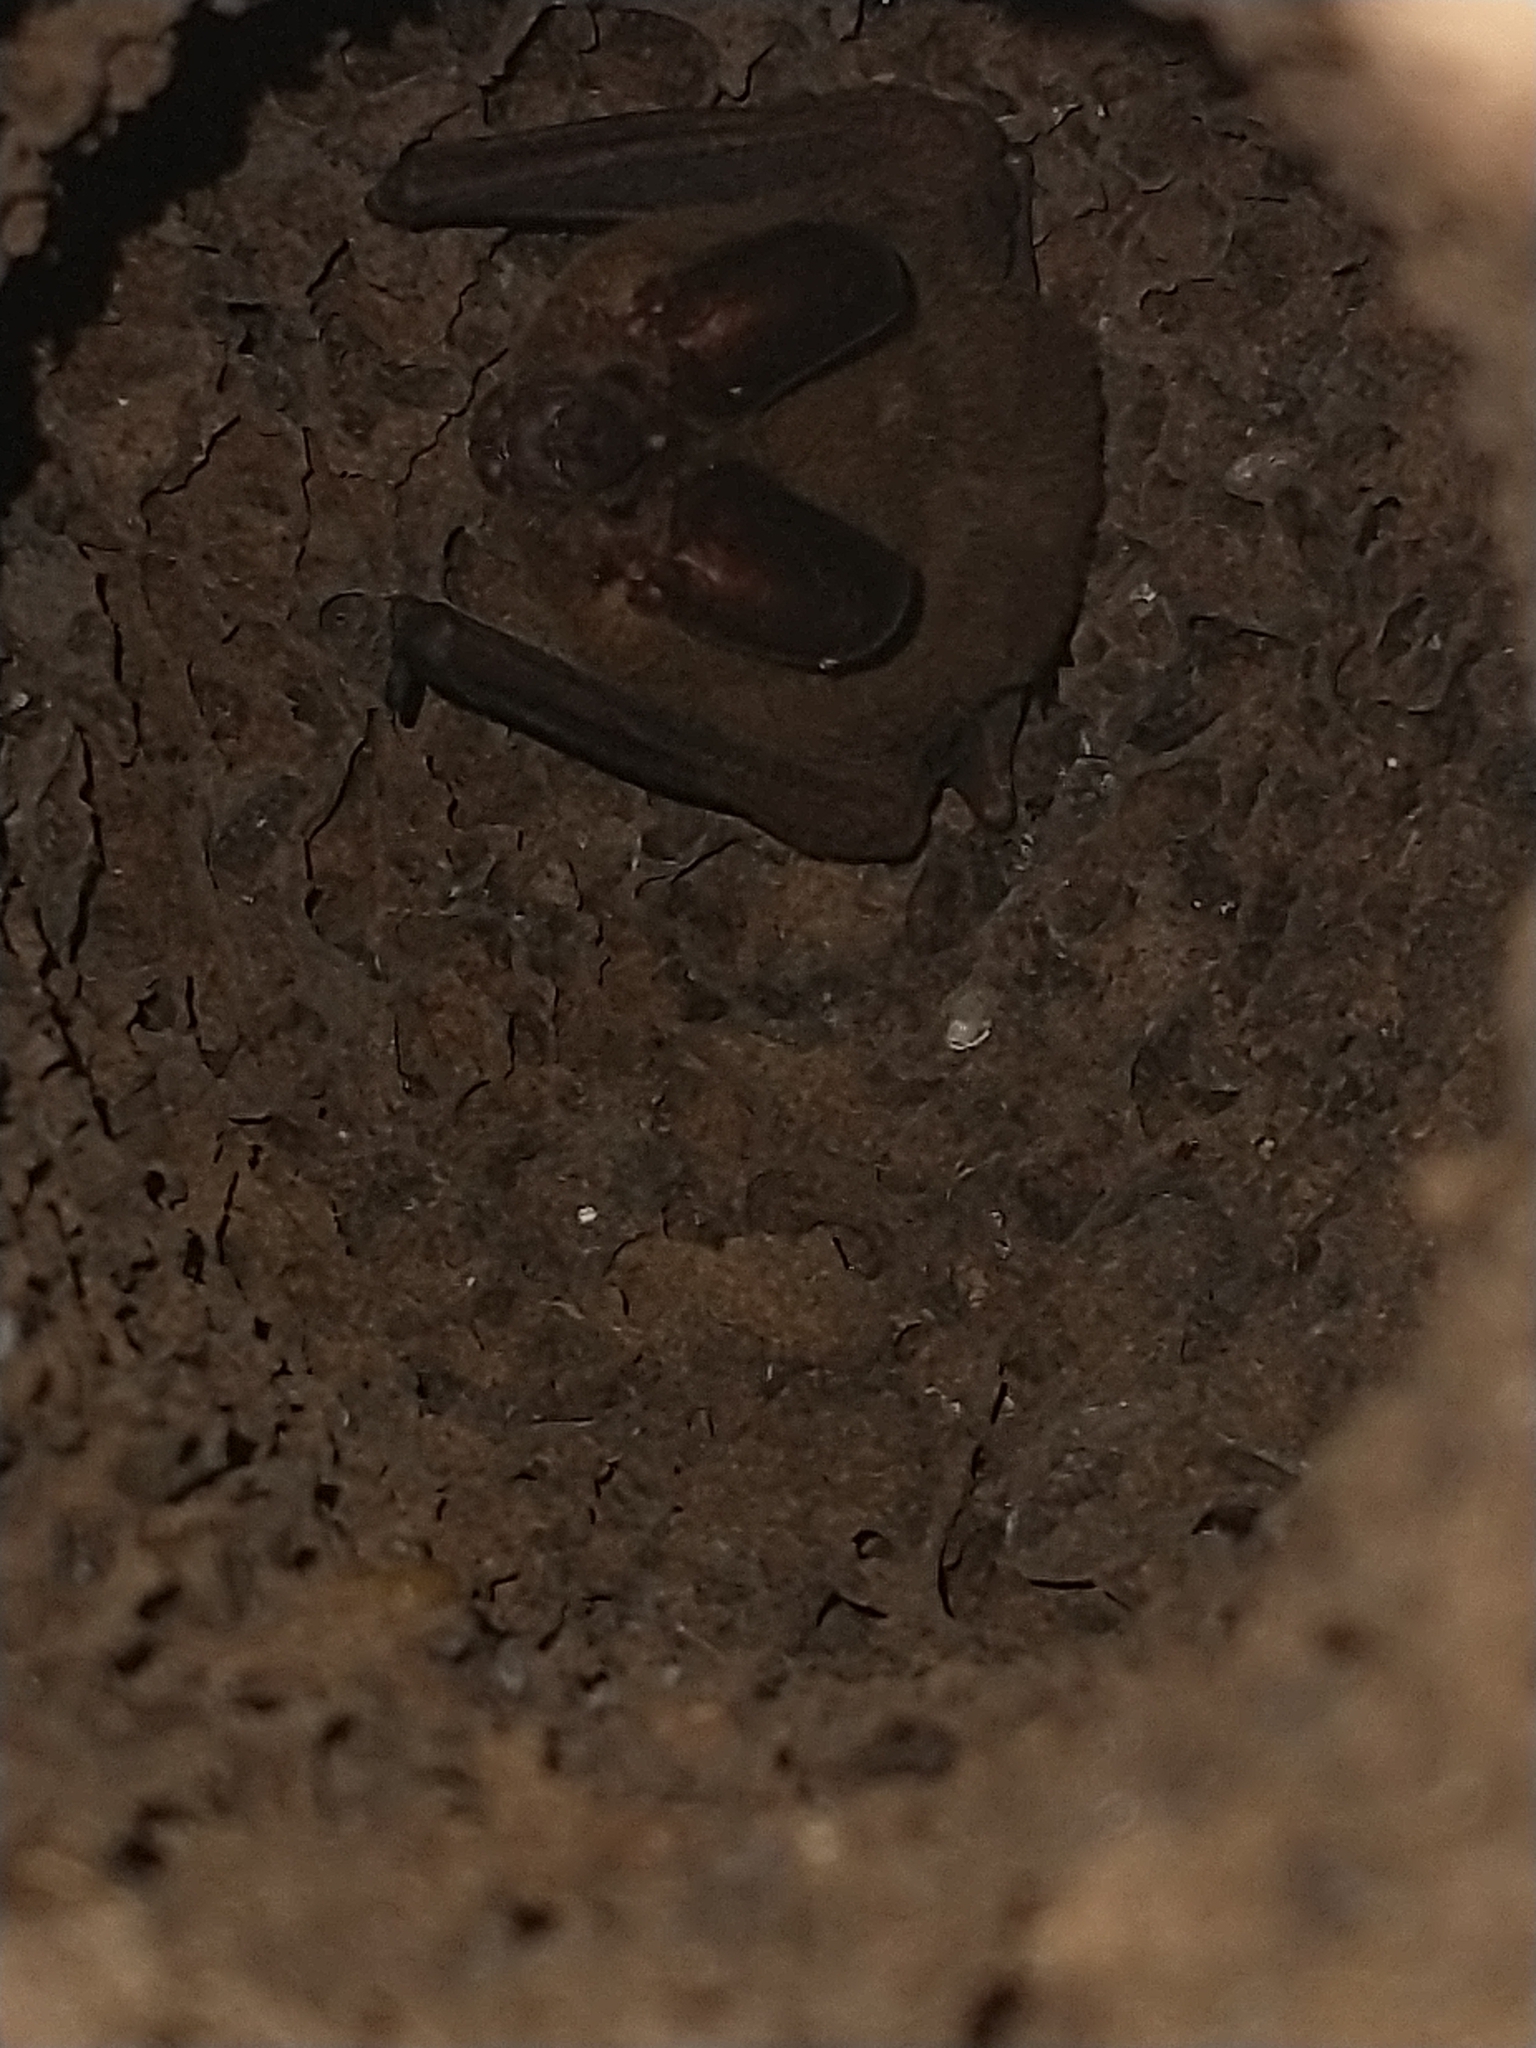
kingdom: Animalia
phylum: Chordata
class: Mammalia
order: Chiroptera
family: Phyllostomidae
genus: Lophostoma
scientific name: Lophostoma
